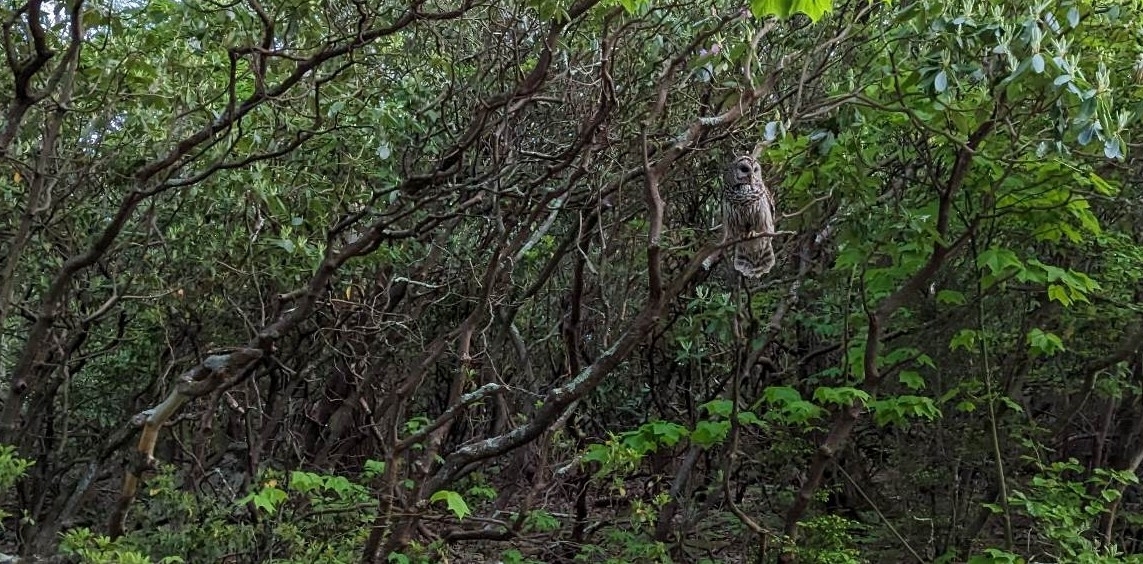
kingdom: Animalia
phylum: Chordata
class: Aves
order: Strigiformes
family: Strigidae
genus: Strix
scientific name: Strix varia
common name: Barred owl
